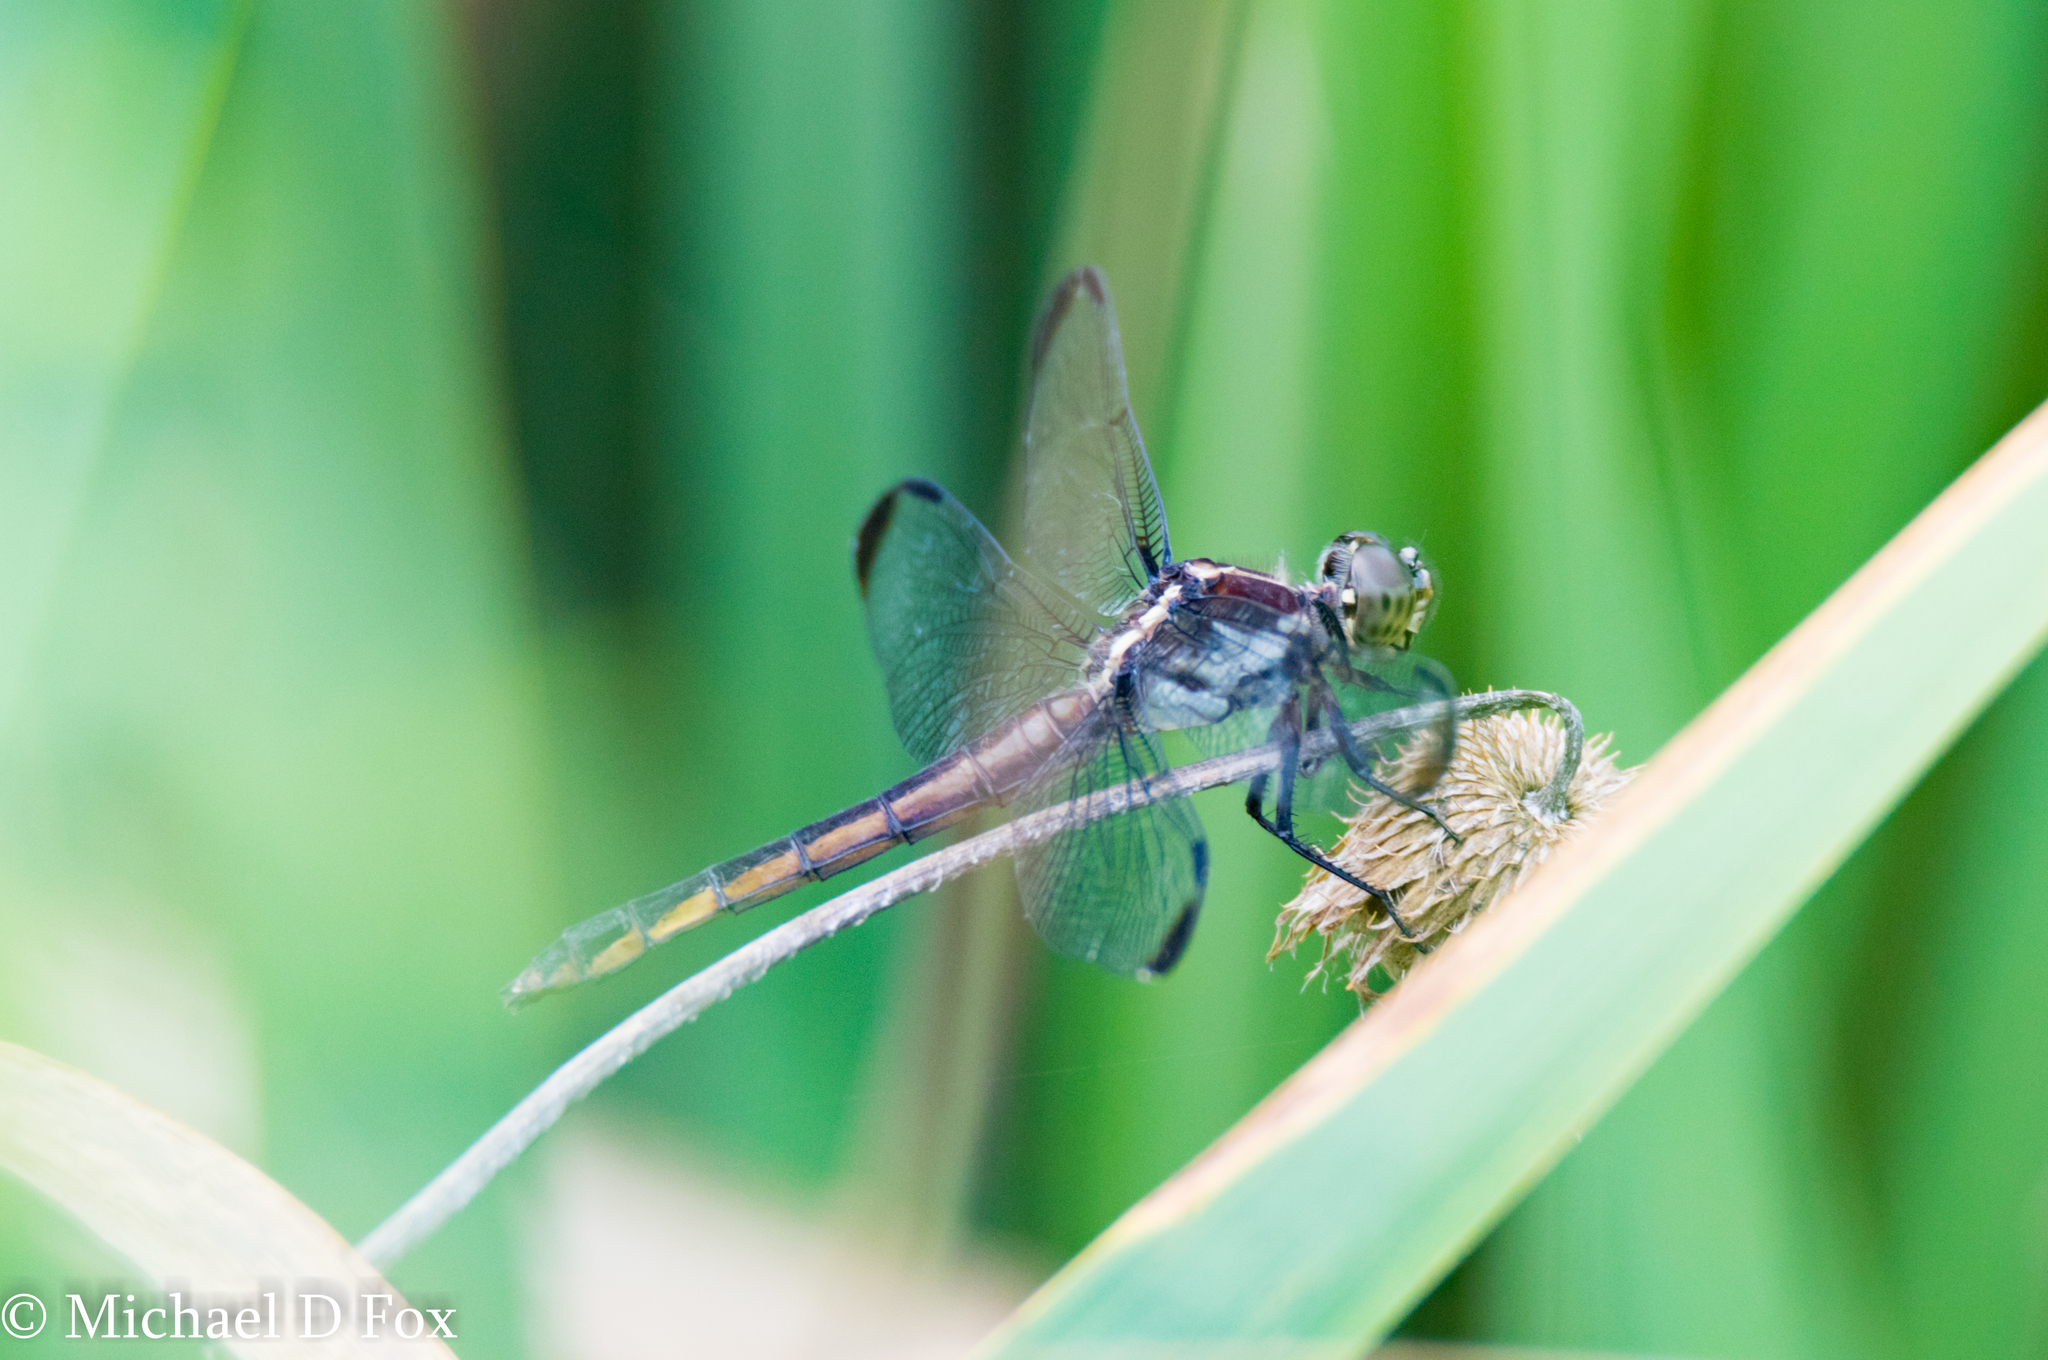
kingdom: Animalia
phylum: Arthropoda
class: Insecta
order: Odonata
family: Libellulidae
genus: Libellula
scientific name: Libellula incesta
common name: Slaty skimmer
